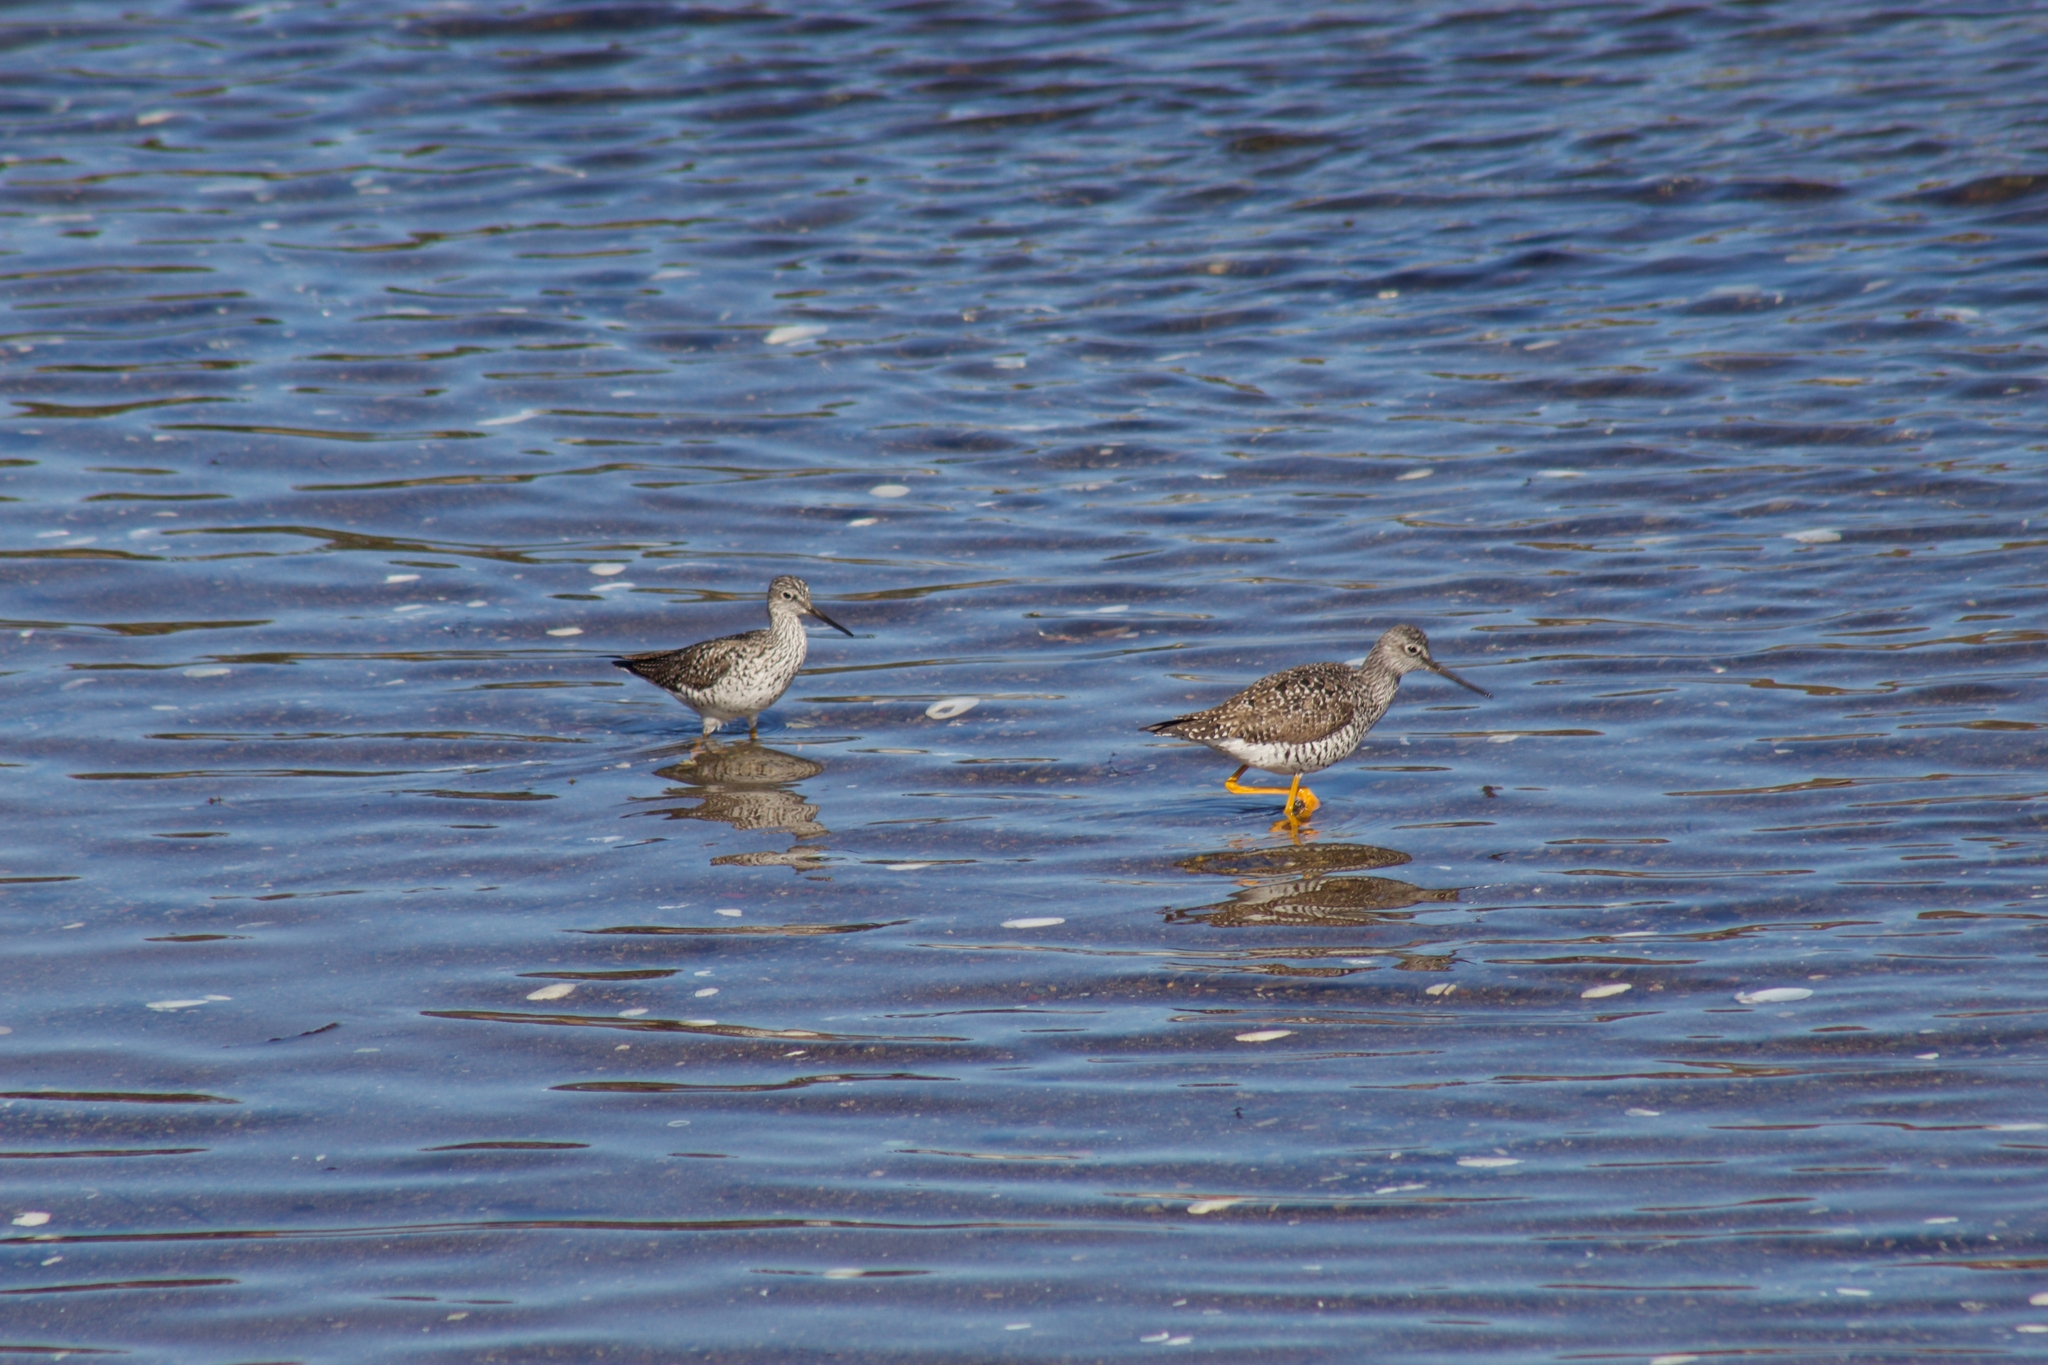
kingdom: Animalia
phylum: Chordata
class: Aves
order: Charadriiformes
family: Scolopacidae
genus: Tringa
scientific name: Tringa melanoleuca
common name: Greater yellowlegs
